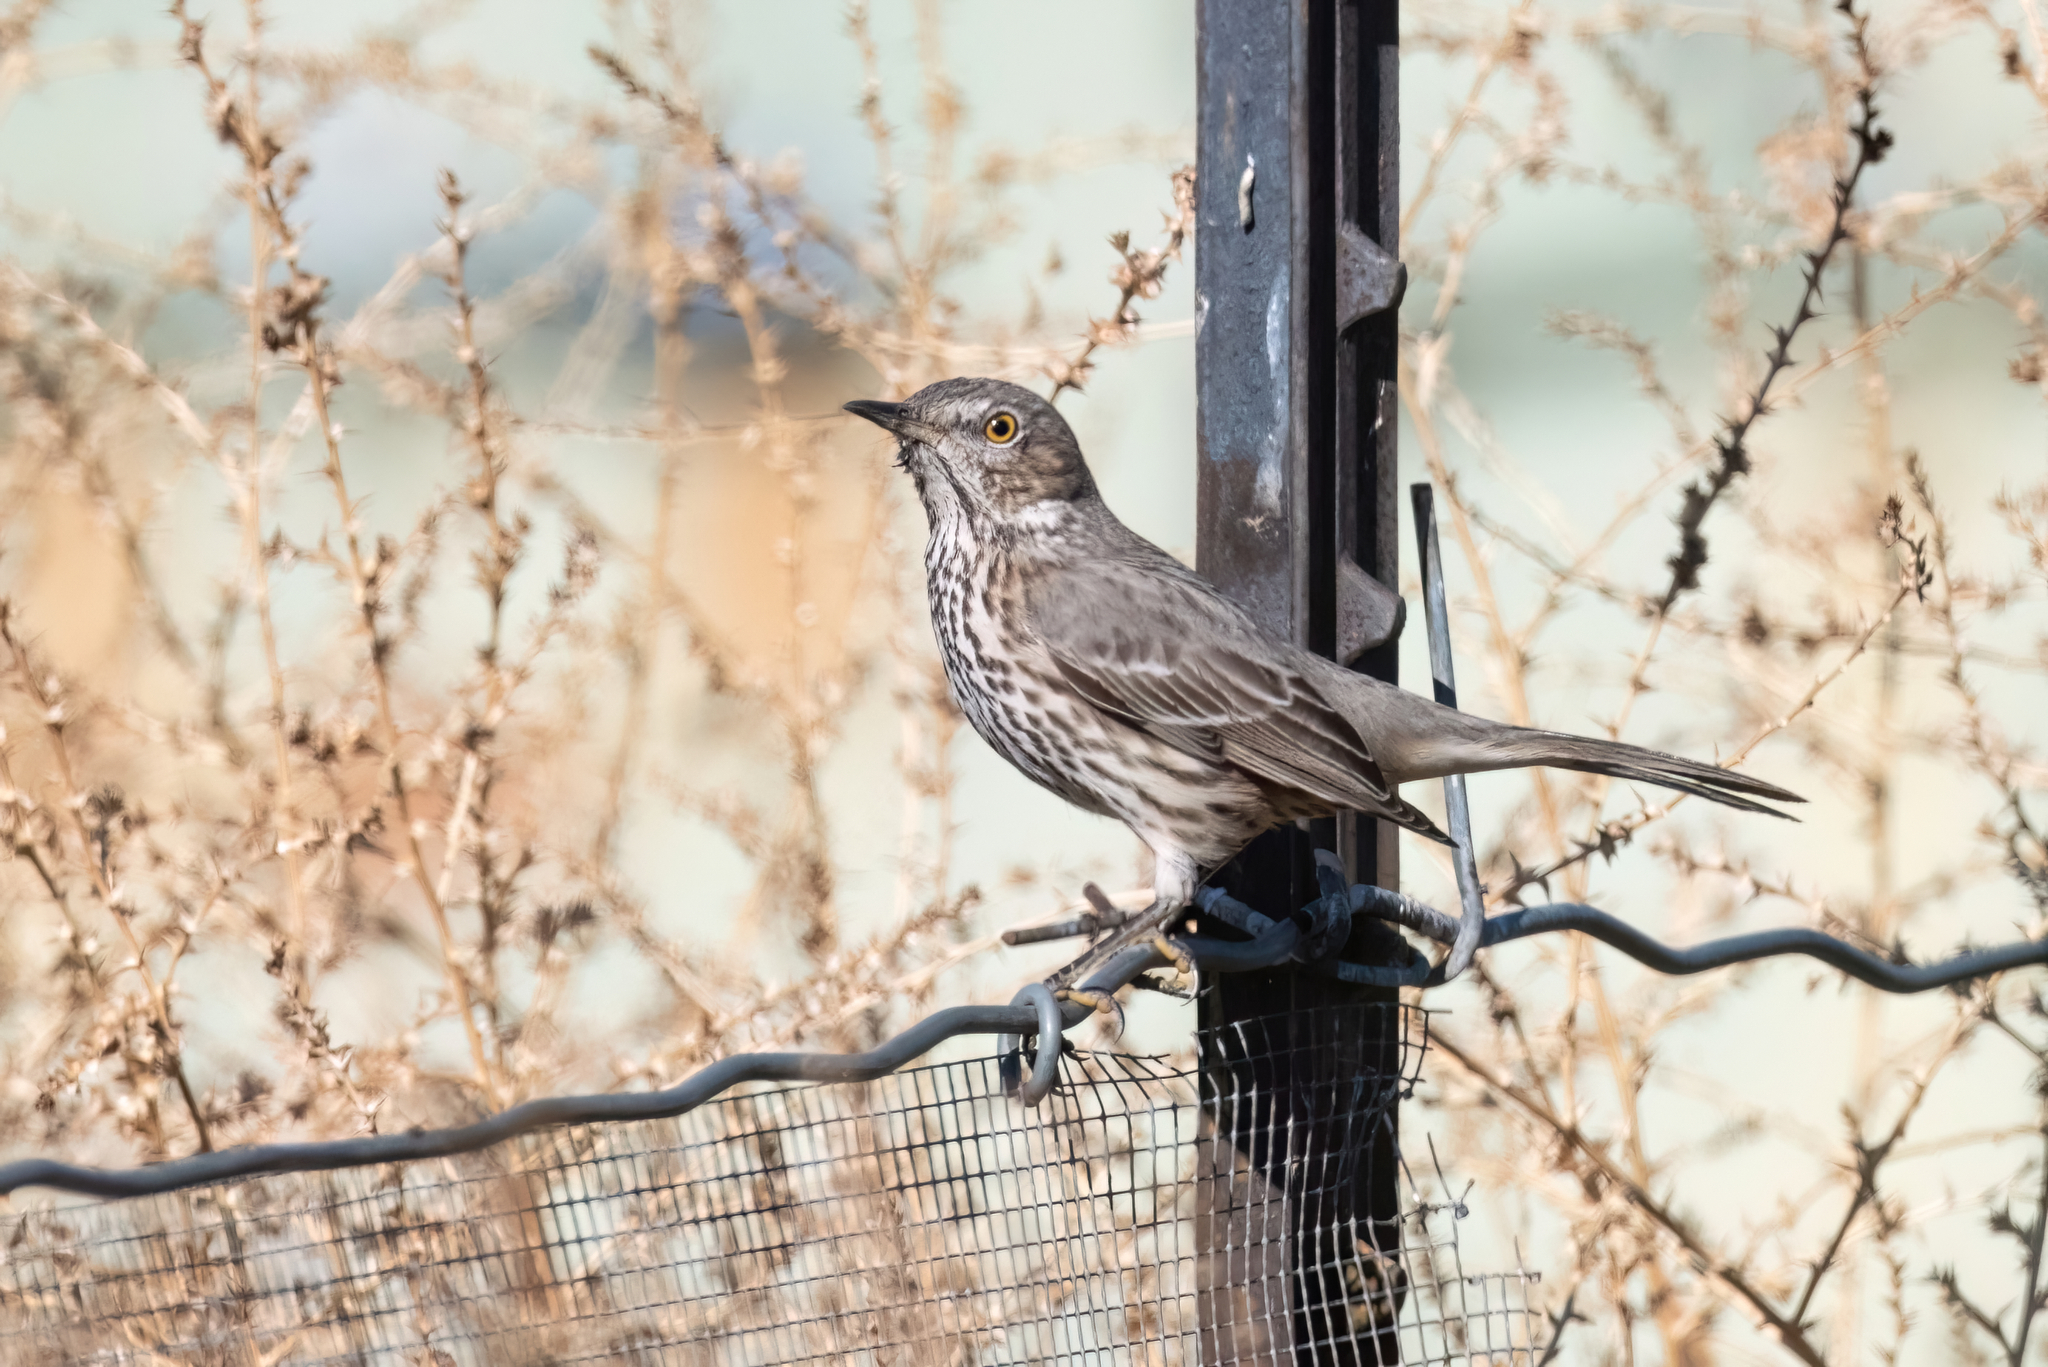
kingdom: Animalia
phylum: Chordata
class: Aves
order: Passeriformes
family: Mimidae
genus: Oreoscoptes
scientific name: Oreoscoptes montanus
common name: Sage thrasher
